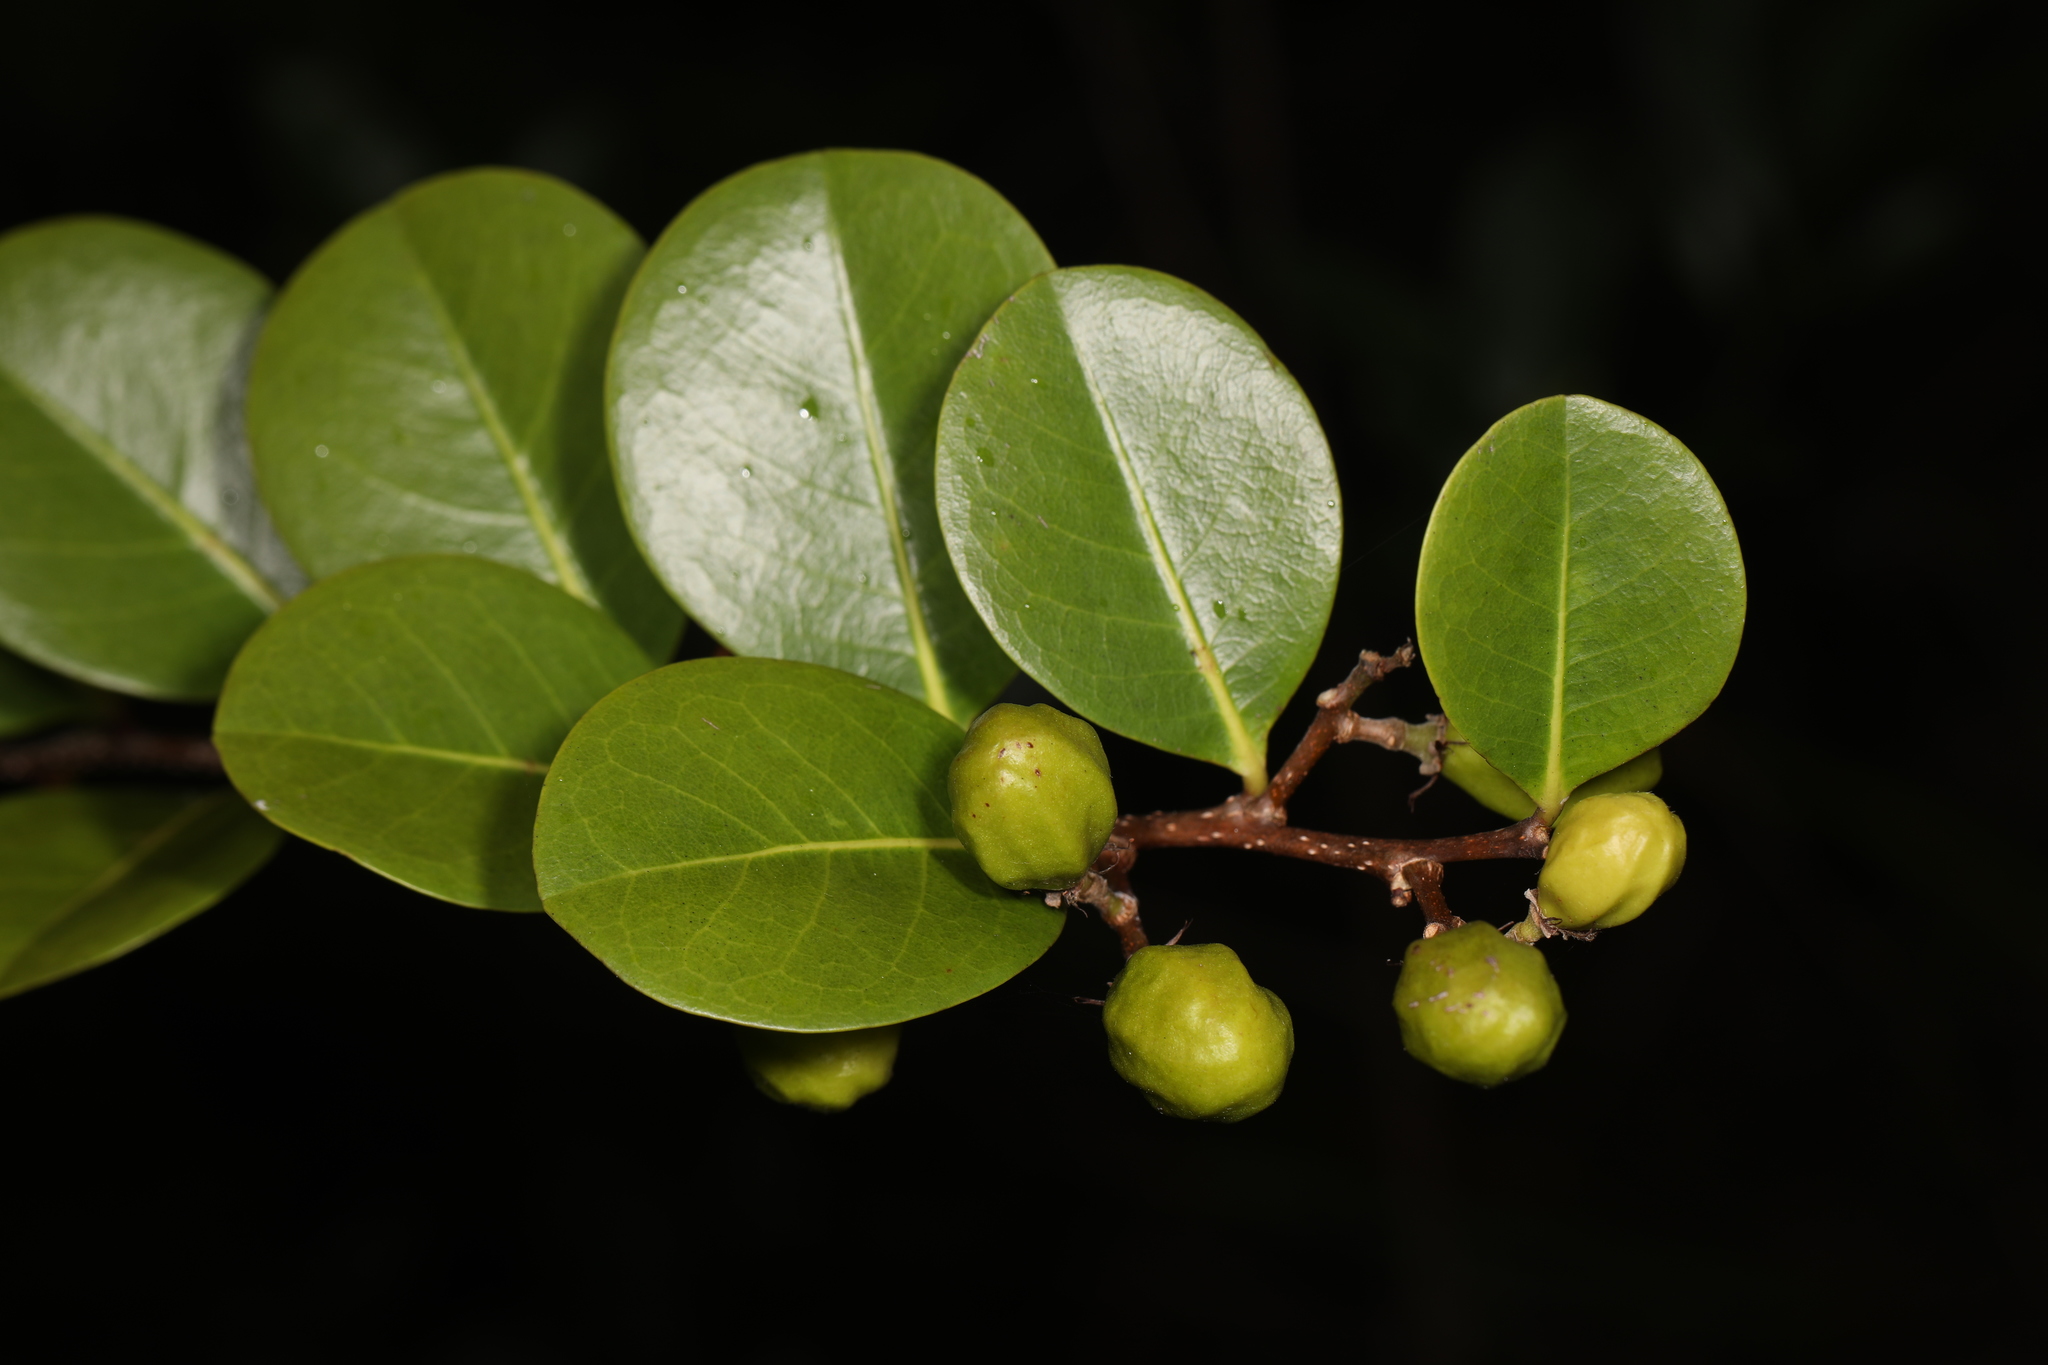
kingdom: Plantae
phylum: Tracheophyta
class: Magnoliopsida
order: Malpighiales
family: Chrysobalanaceae
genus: Chrysobalanus
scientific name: Chrysobalanus icaco
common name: Coco plum
